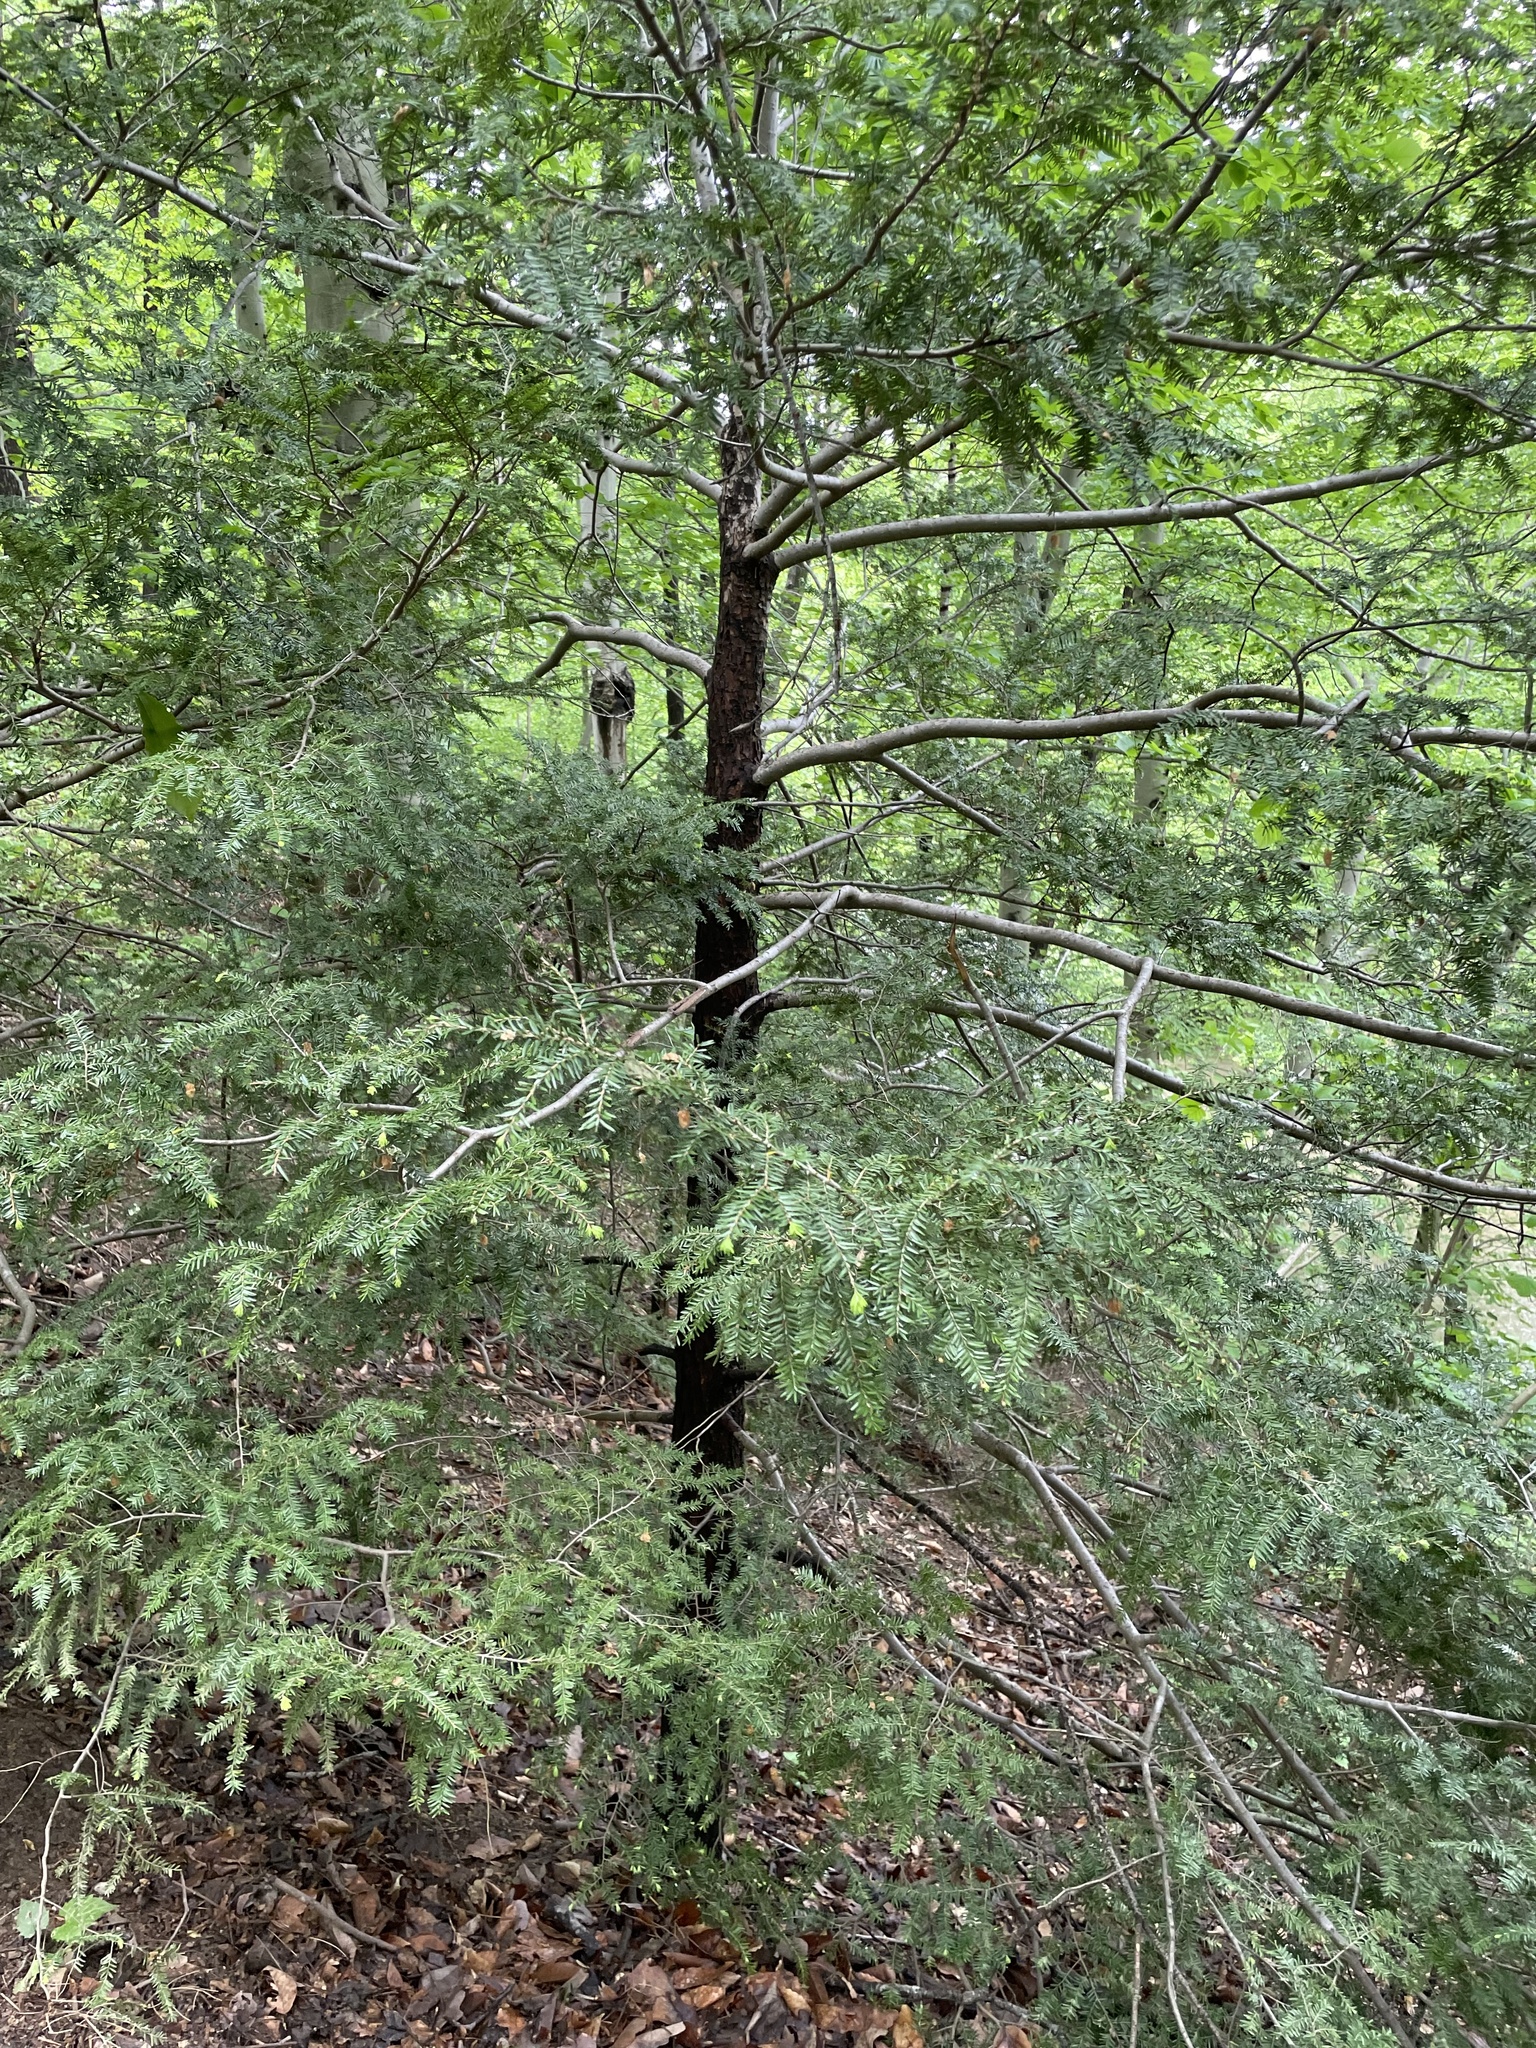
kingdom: Plantae
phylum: Tracheophyta
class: Pinopsida
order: Pinales
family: Pinaceae
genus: Tsuga
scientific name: Tsuga canadensis
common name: Eastern hemlock
